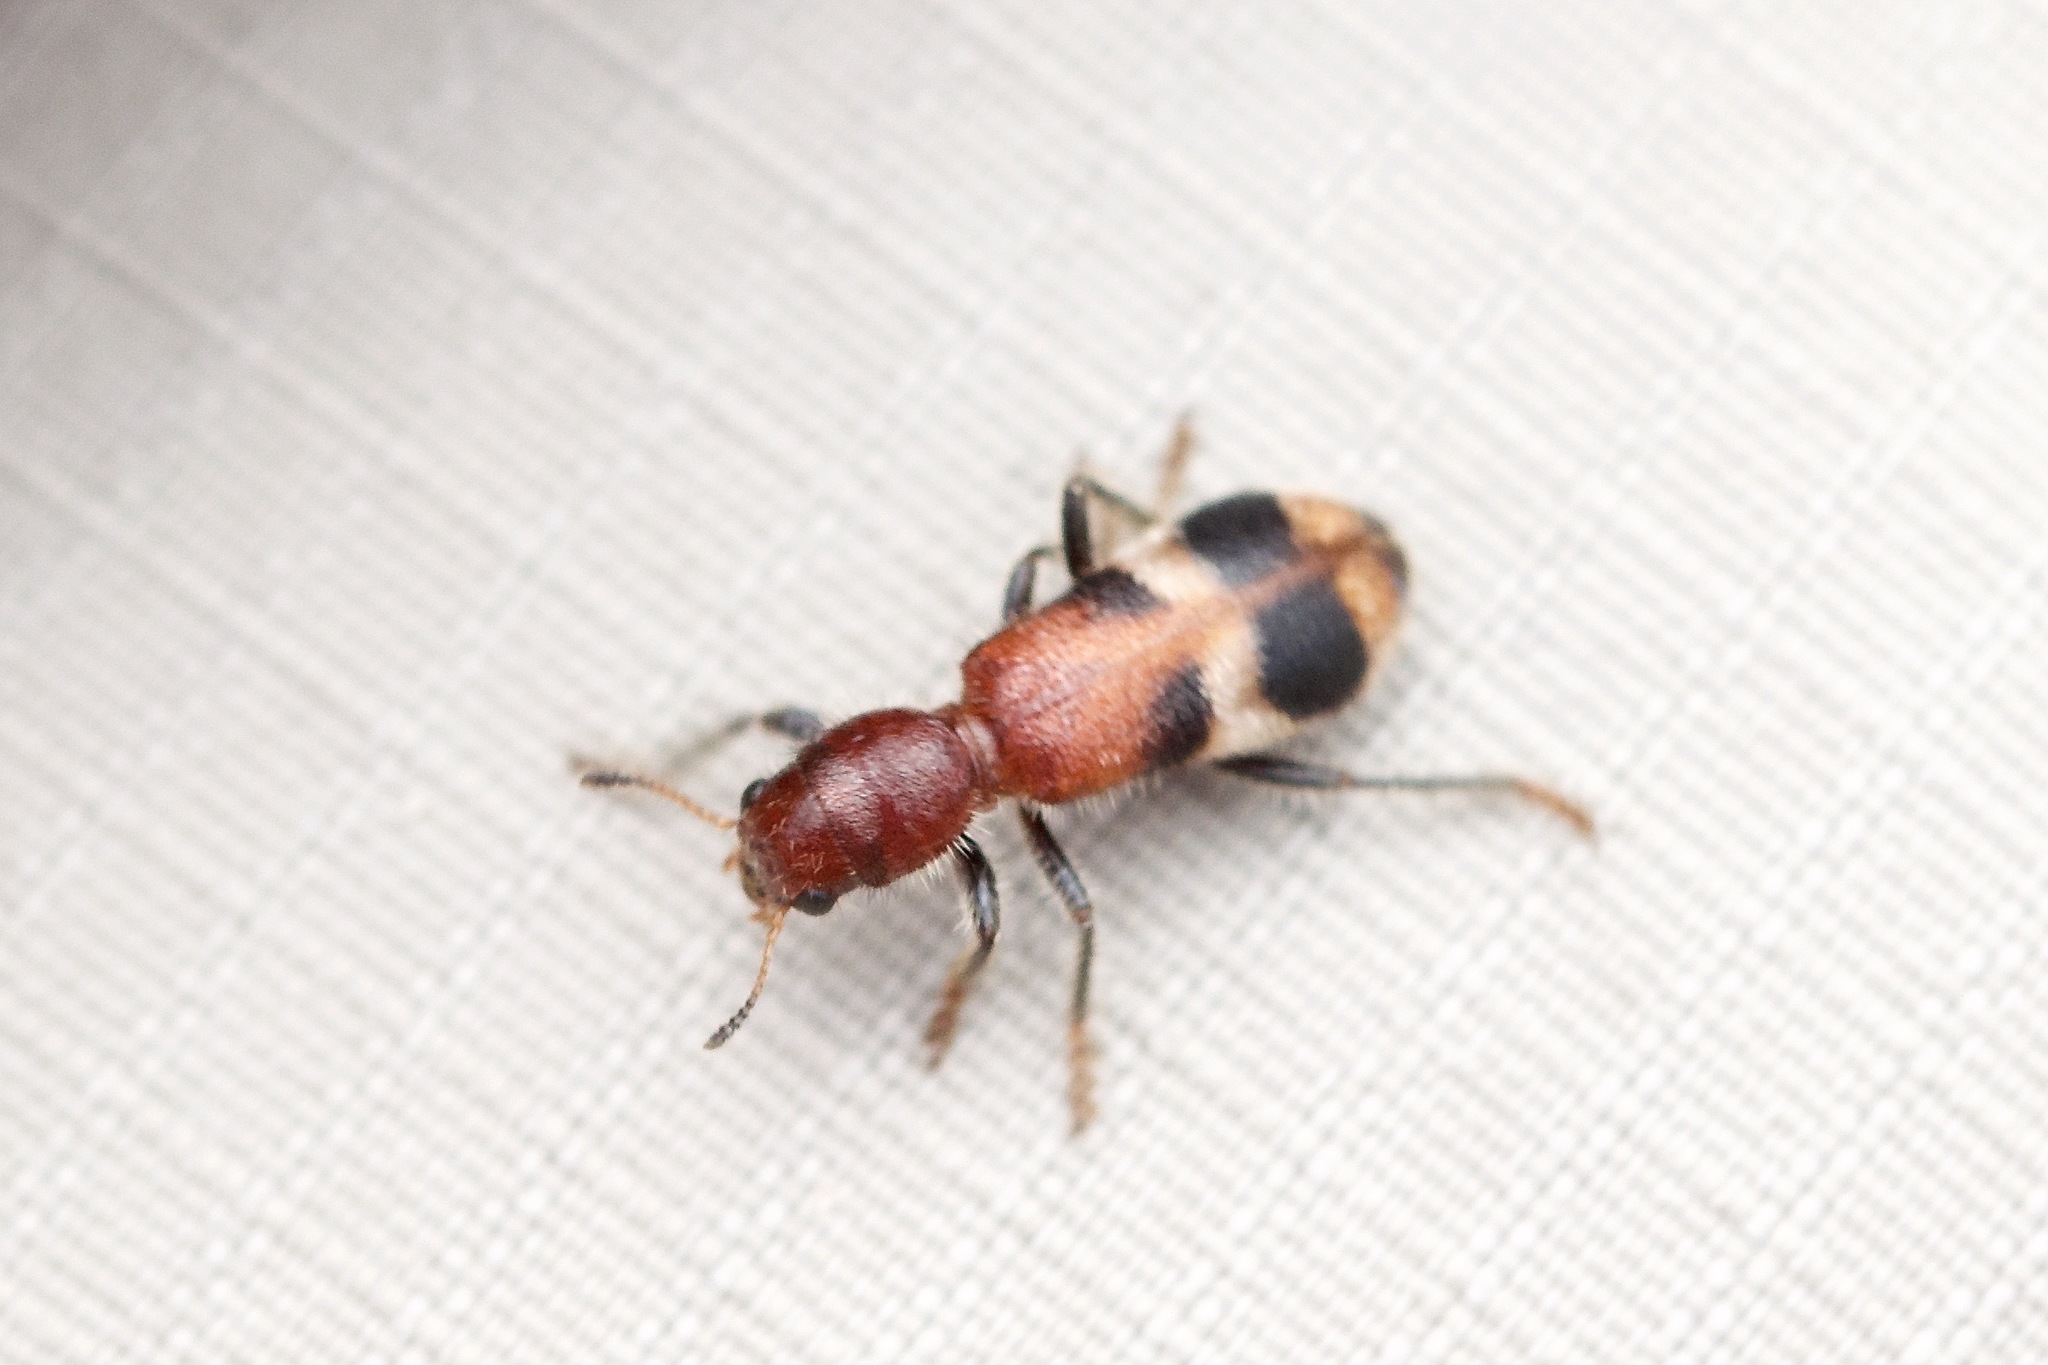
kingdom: Animalia
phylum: Arthropoda
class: Insecta
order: Coleoptera
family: Cleridae
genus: Enoclerus
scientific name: Enoclerus rosmarus
